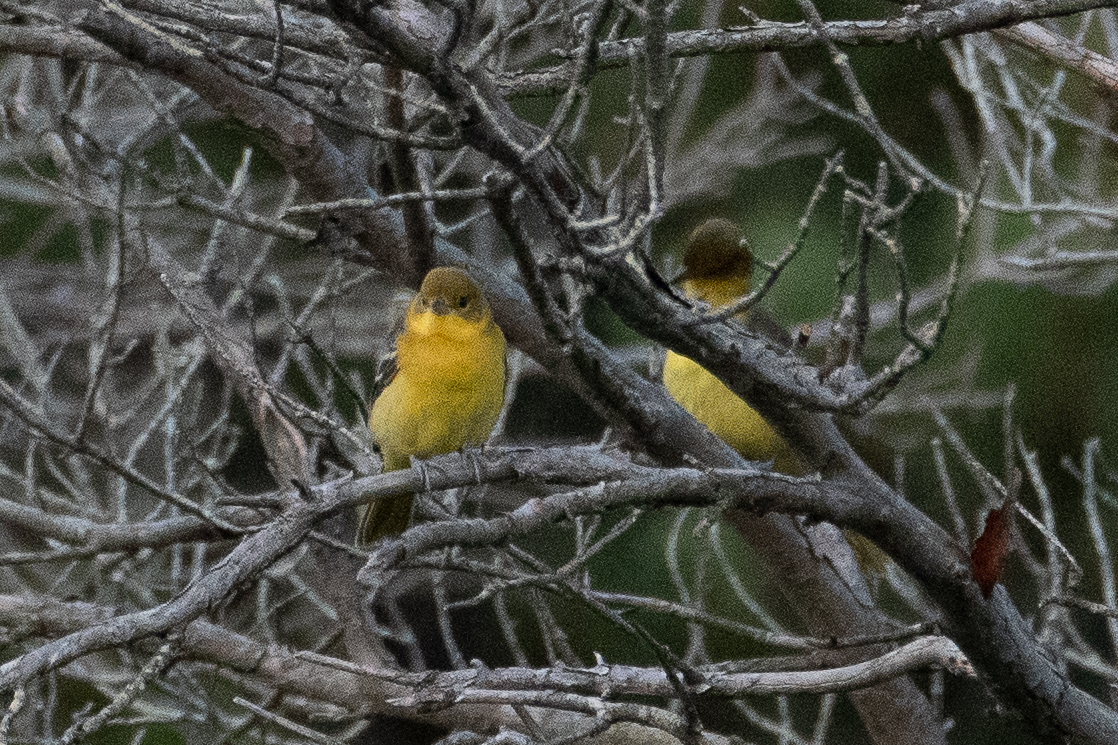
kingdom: Animalia
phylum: Chordata
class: Aves
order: Passeriformes
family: Icteridae
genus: Icterus
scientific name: Icterus spurius
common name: Orchard oriole
